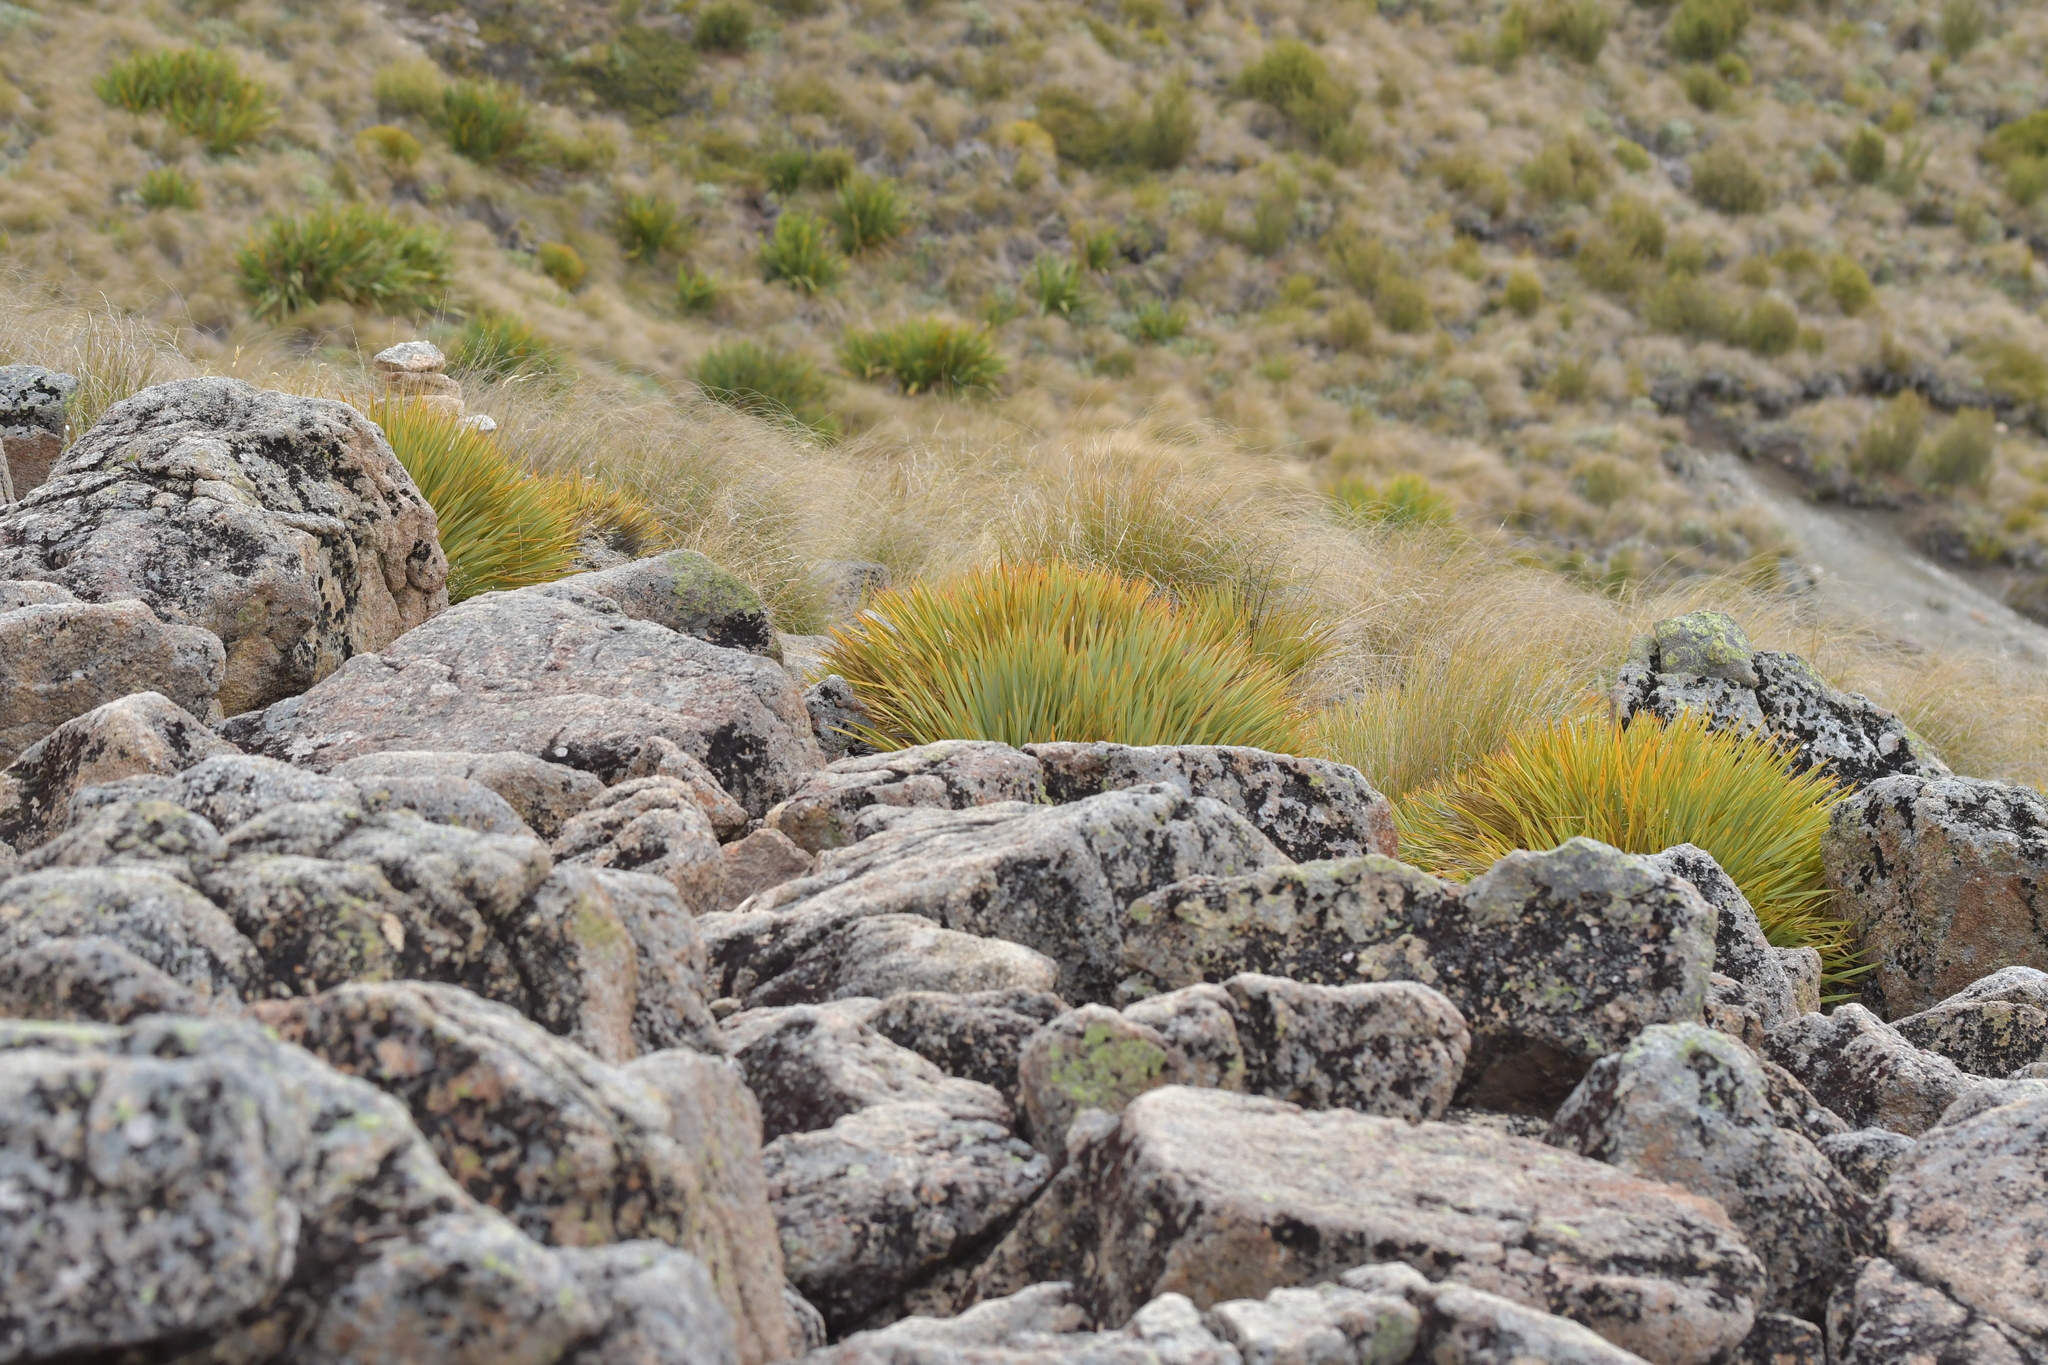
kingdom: Plantae
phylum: Tracheophyta
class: Magnoliopsida
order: Apiales
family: Apiaceae
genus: Aciphylla
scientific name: Aciphylla aurea
